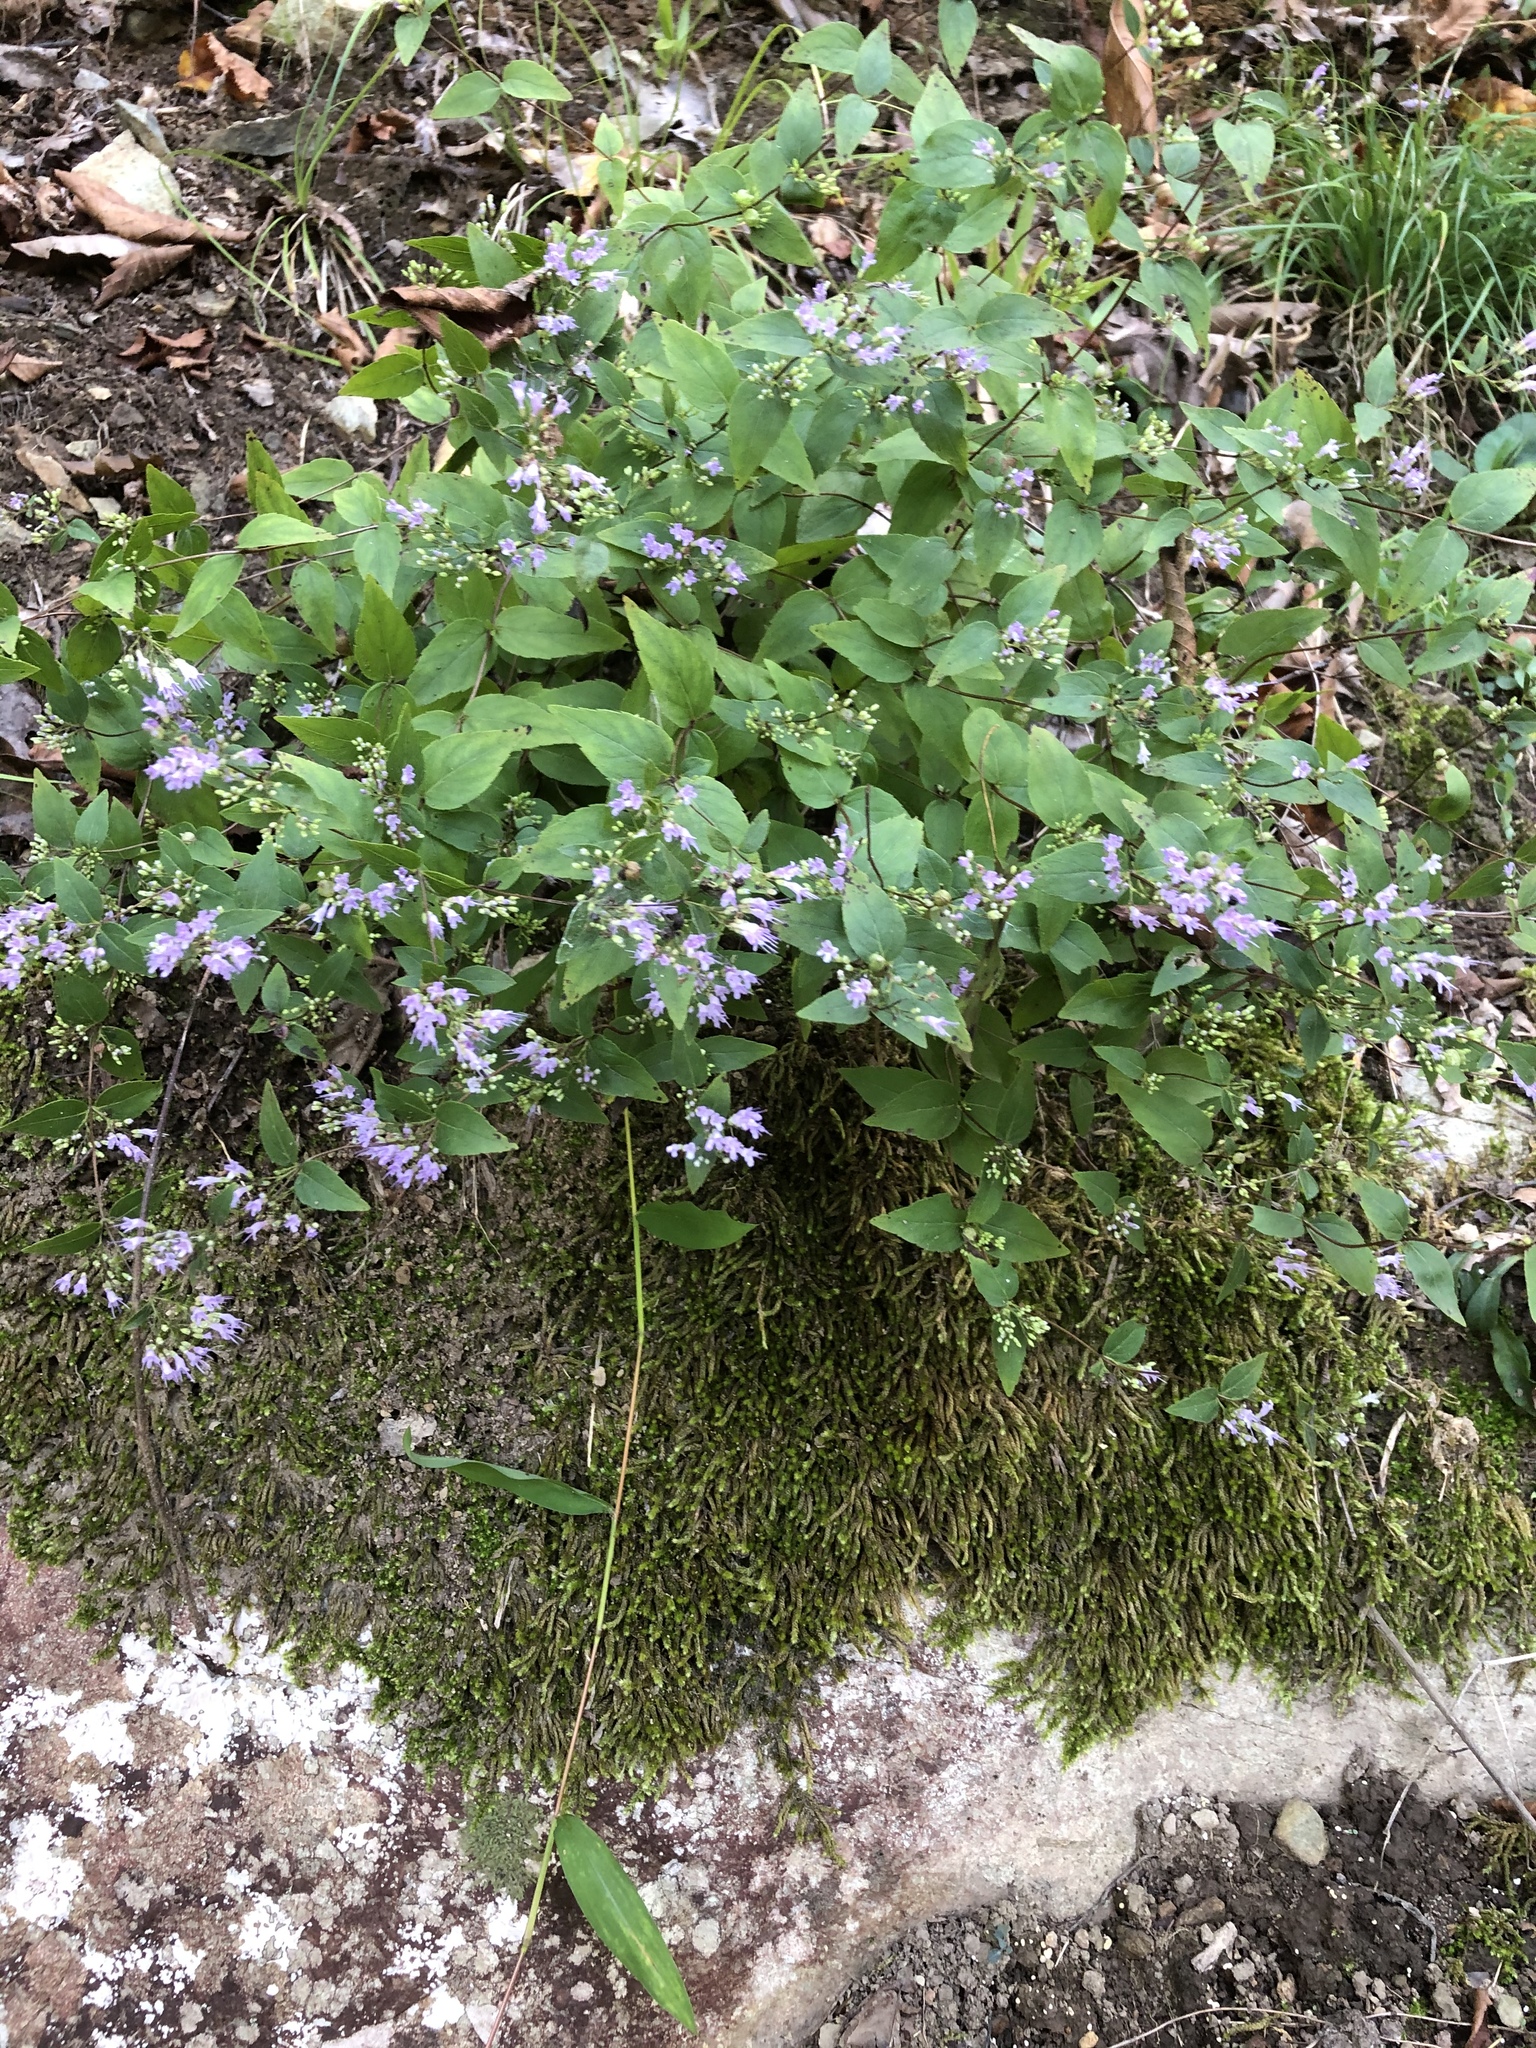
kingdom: Plantae
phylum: Tracheophyta
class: Magnoliopsida
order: Lamiales
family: Lamiaceae
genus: Cunila
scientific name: Cunila origanoides
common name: American dittany
